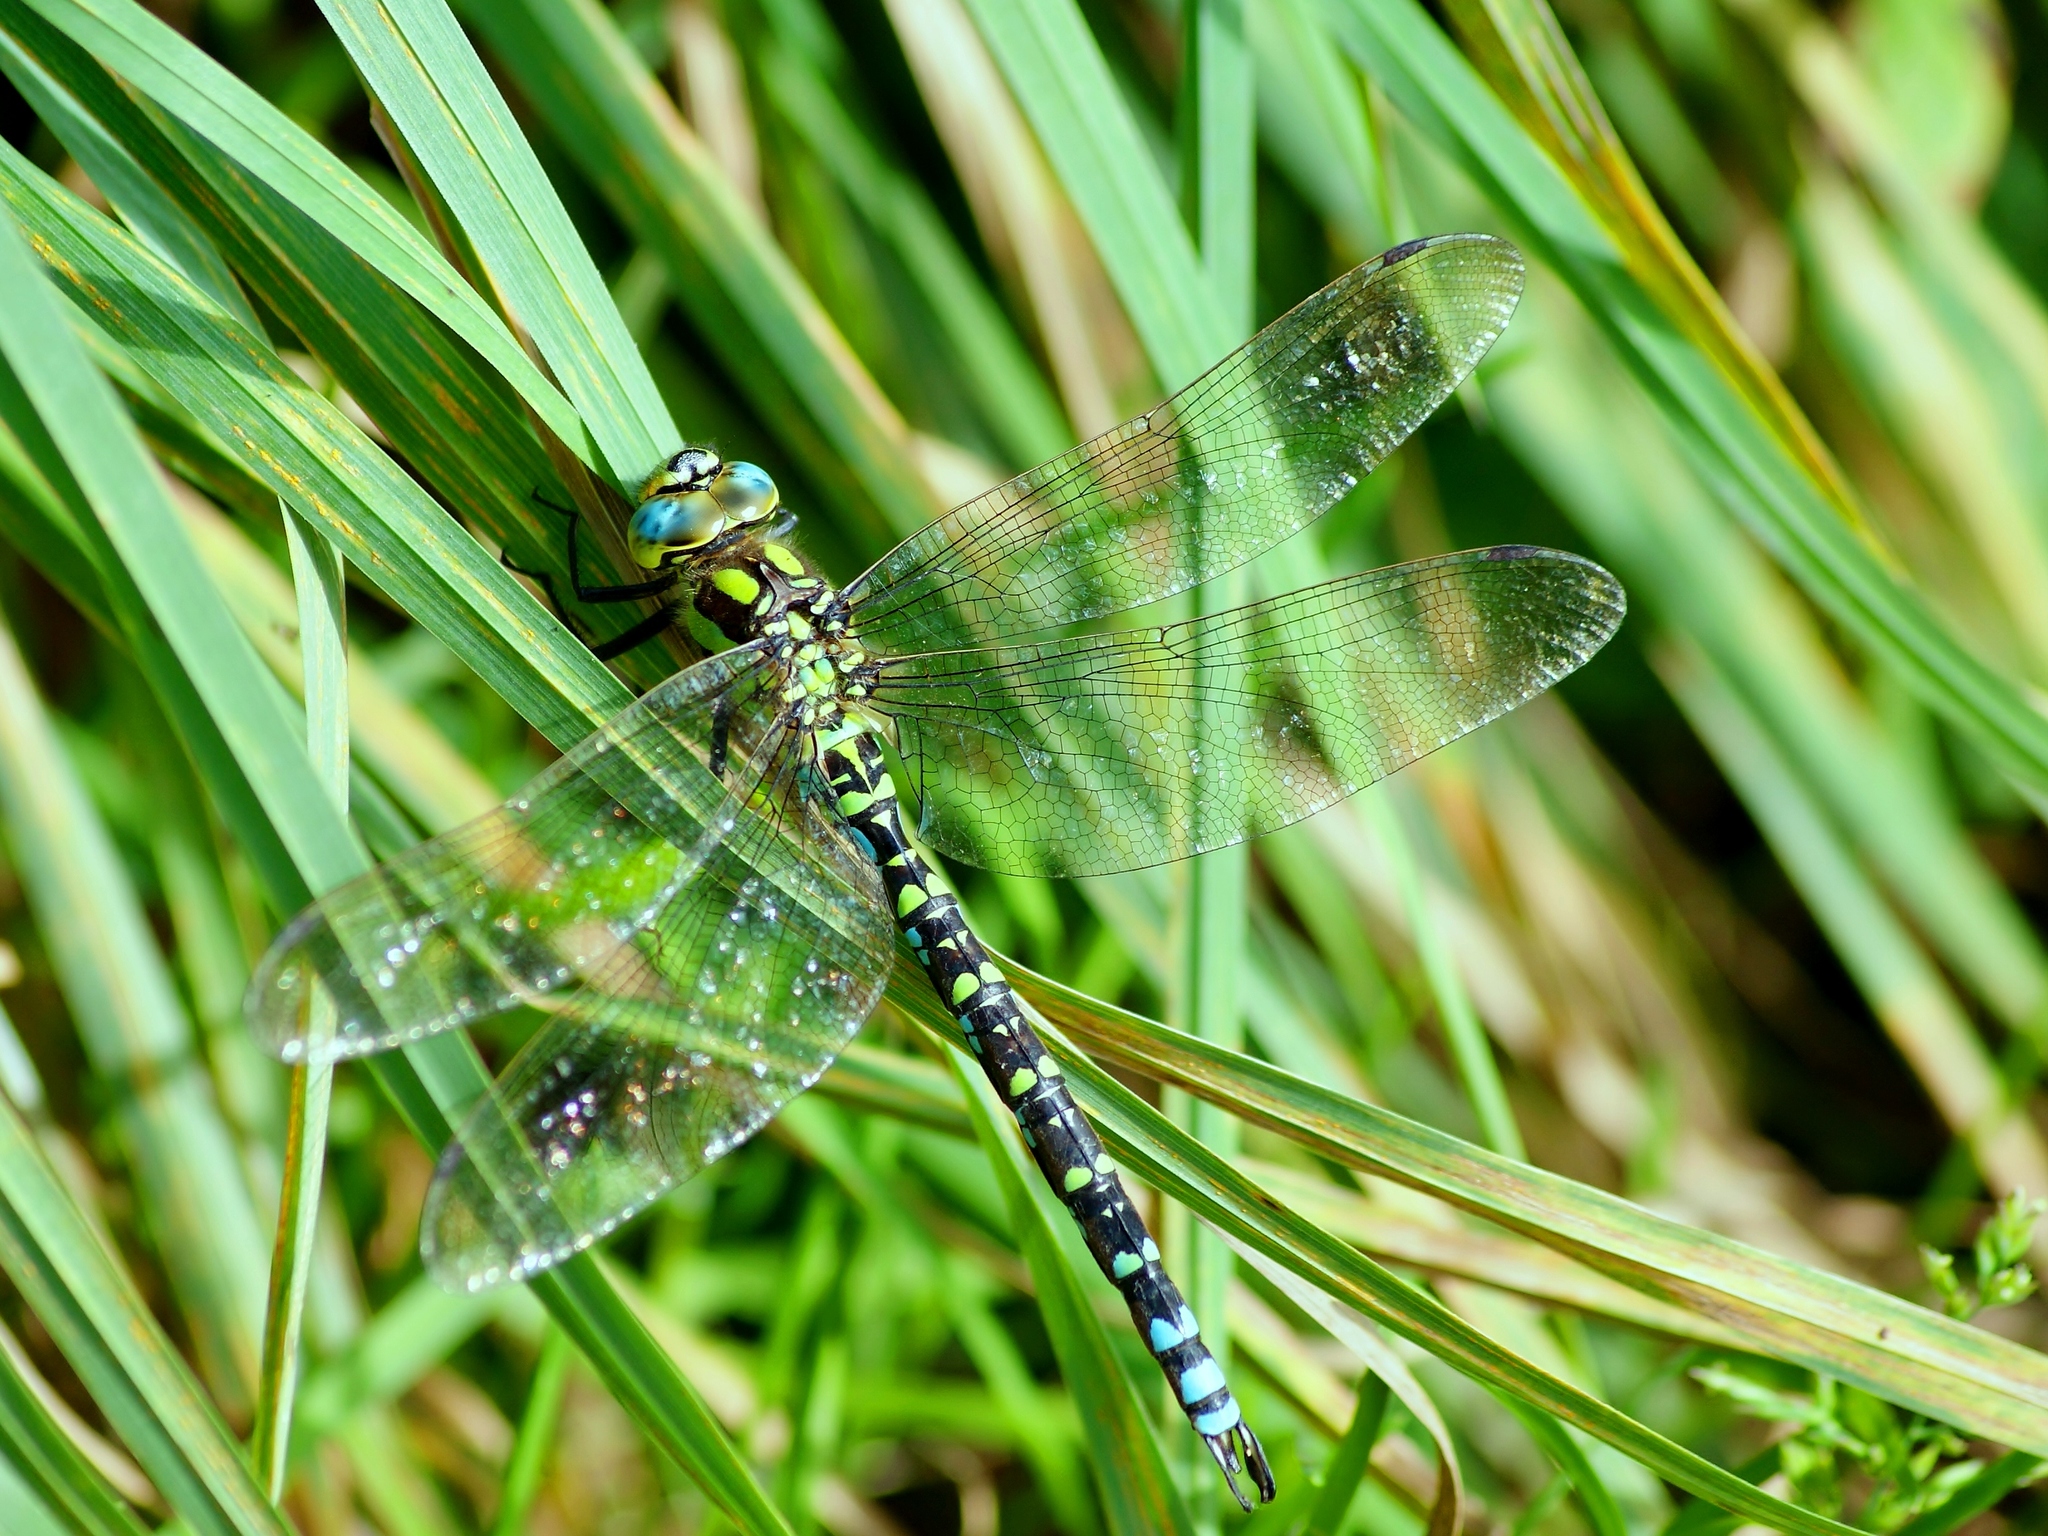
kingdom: Animalia
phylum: Arthropoda
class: Insecta
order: Odonata
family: Aeshnidae
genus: Aeshna
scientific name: Aeshna cyanea
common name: Southern hawker
